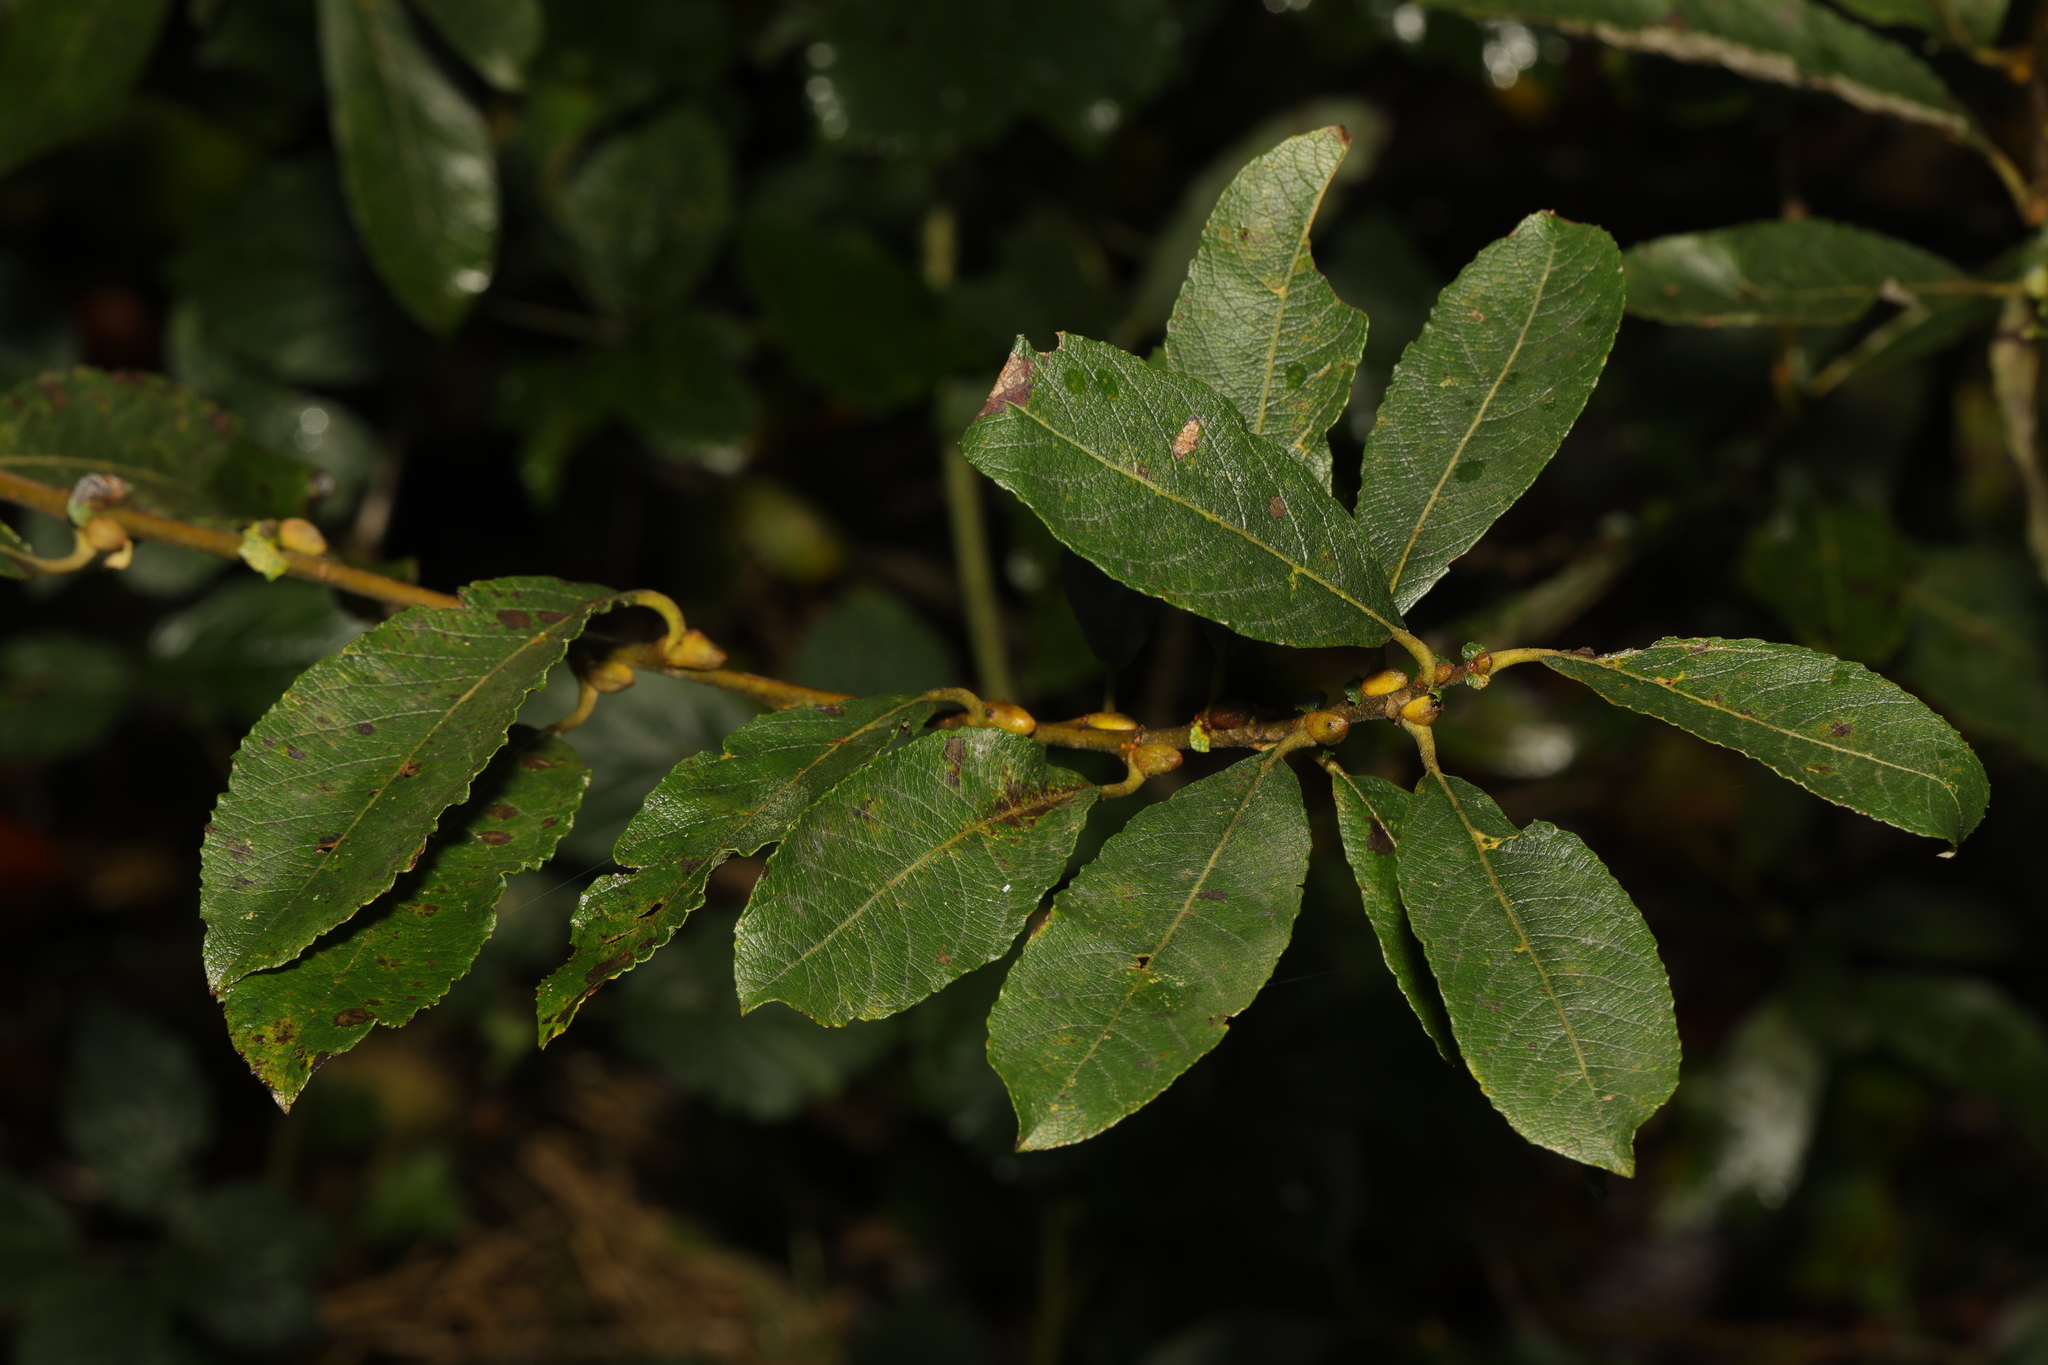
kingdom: Plantae
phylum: Tracheophyta
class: Magnoliopsida
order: Malpighiales
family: Salicaceae
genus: Salix
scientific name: Salix cinerea
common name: Common sallow
